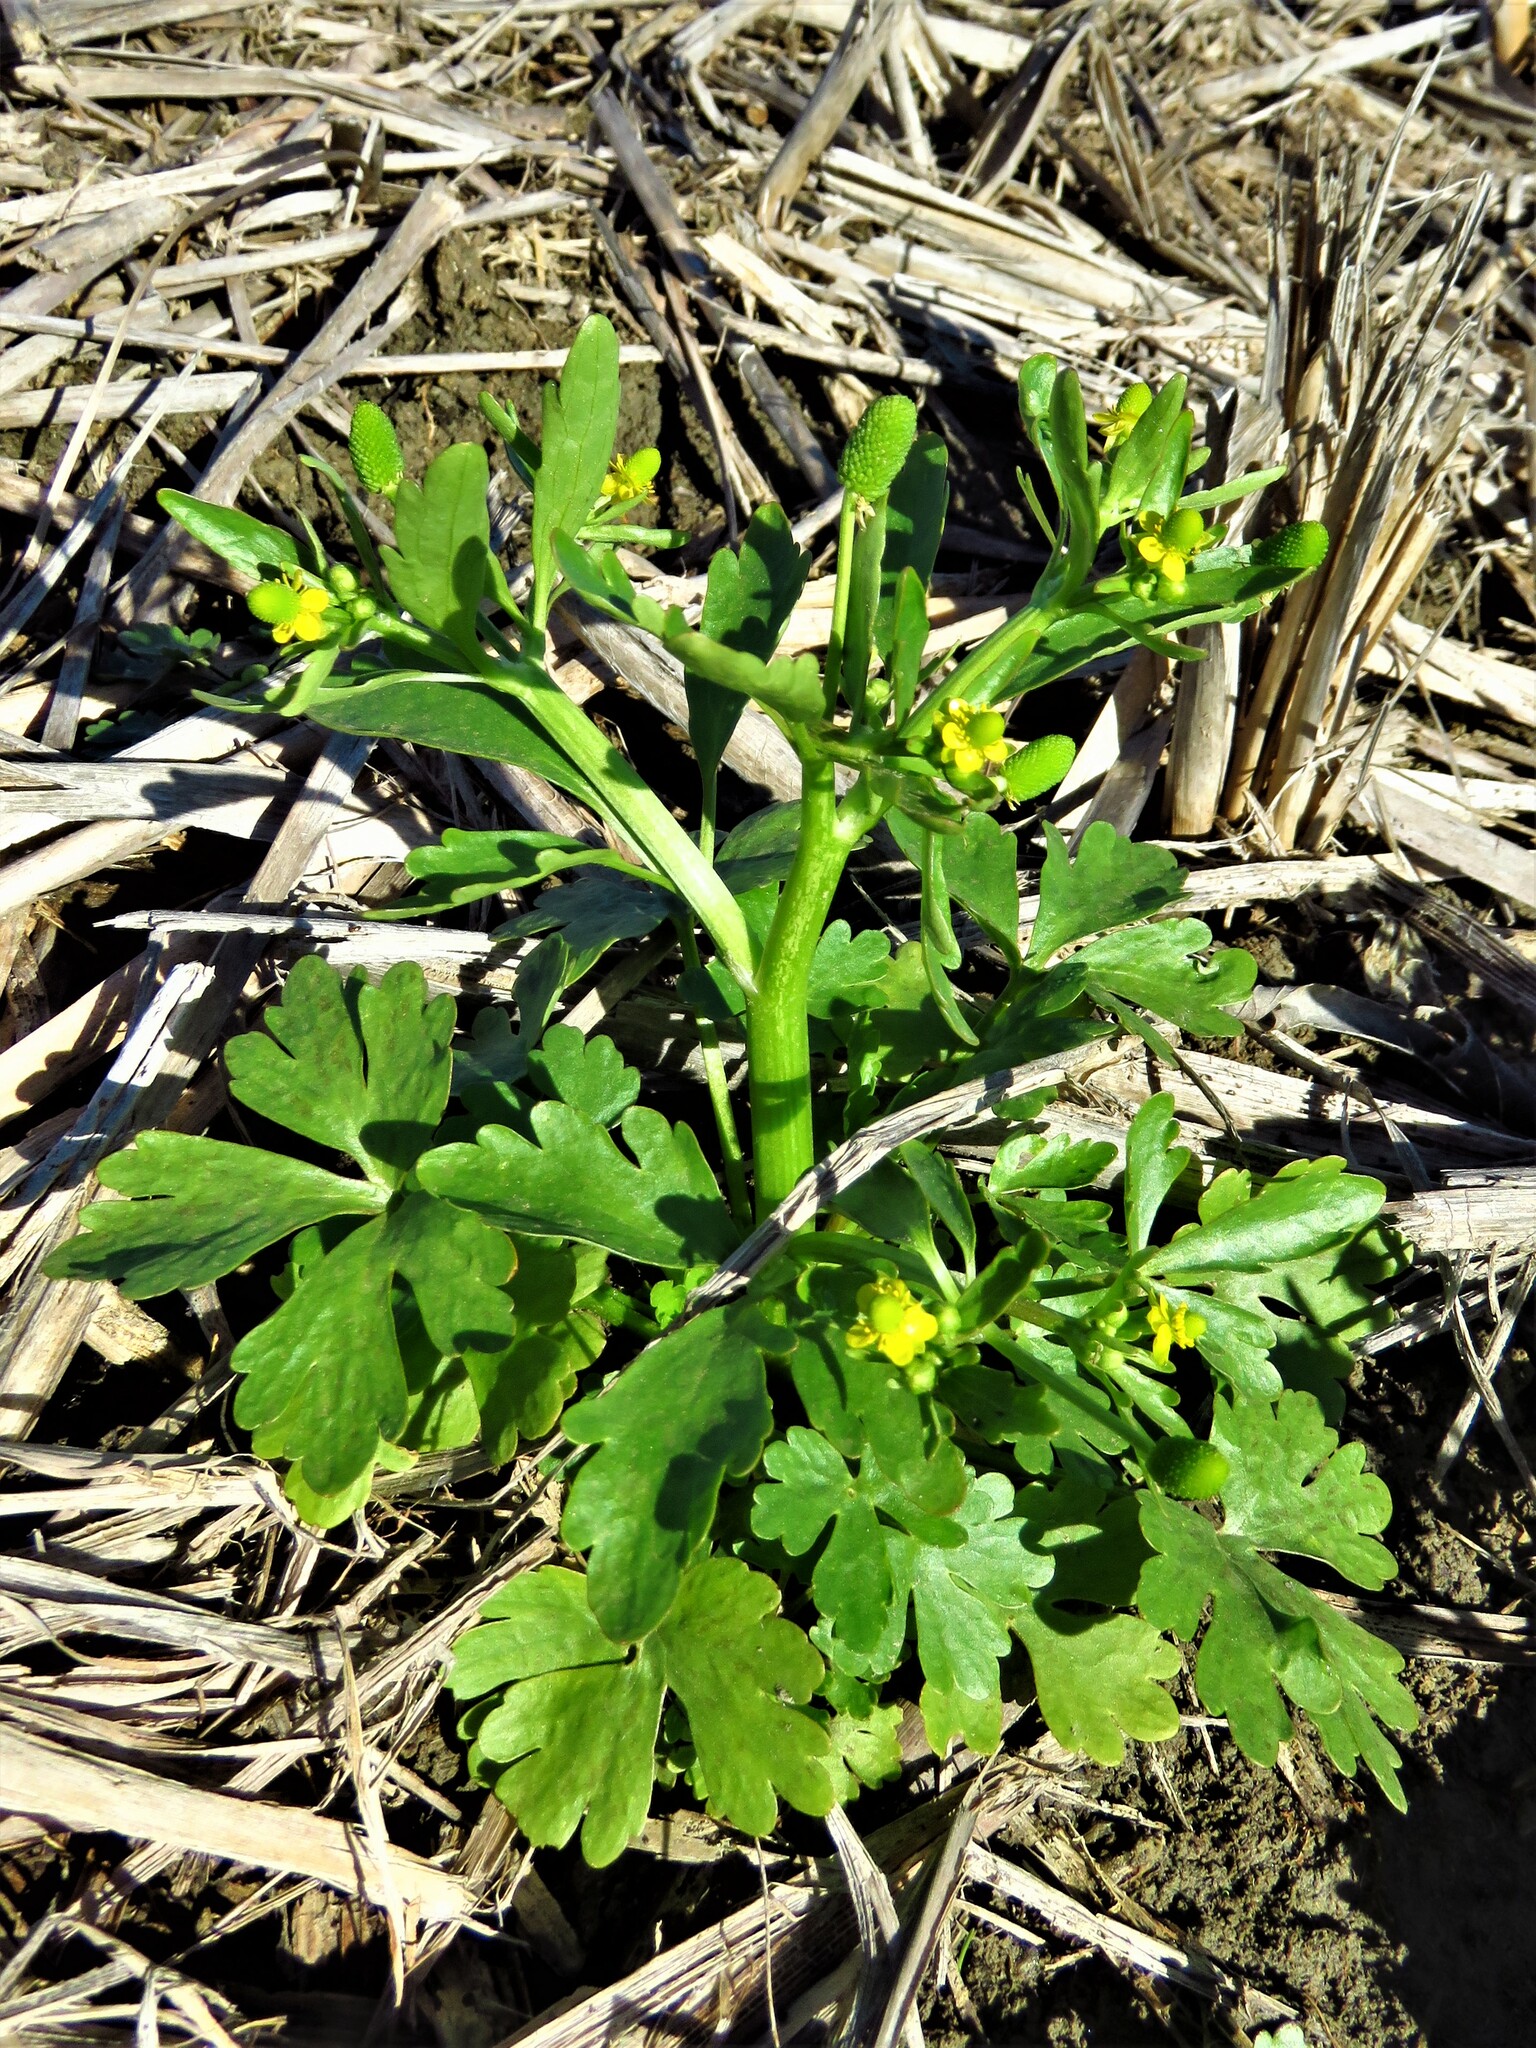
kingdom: Plantae
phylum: Tracheophyta
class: Magnoliopsida
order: Ranunculales
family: Ranunculaceae
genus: Ranunculus
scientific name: Ranunculus sceleratus
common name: Celery-leaved buttercup
